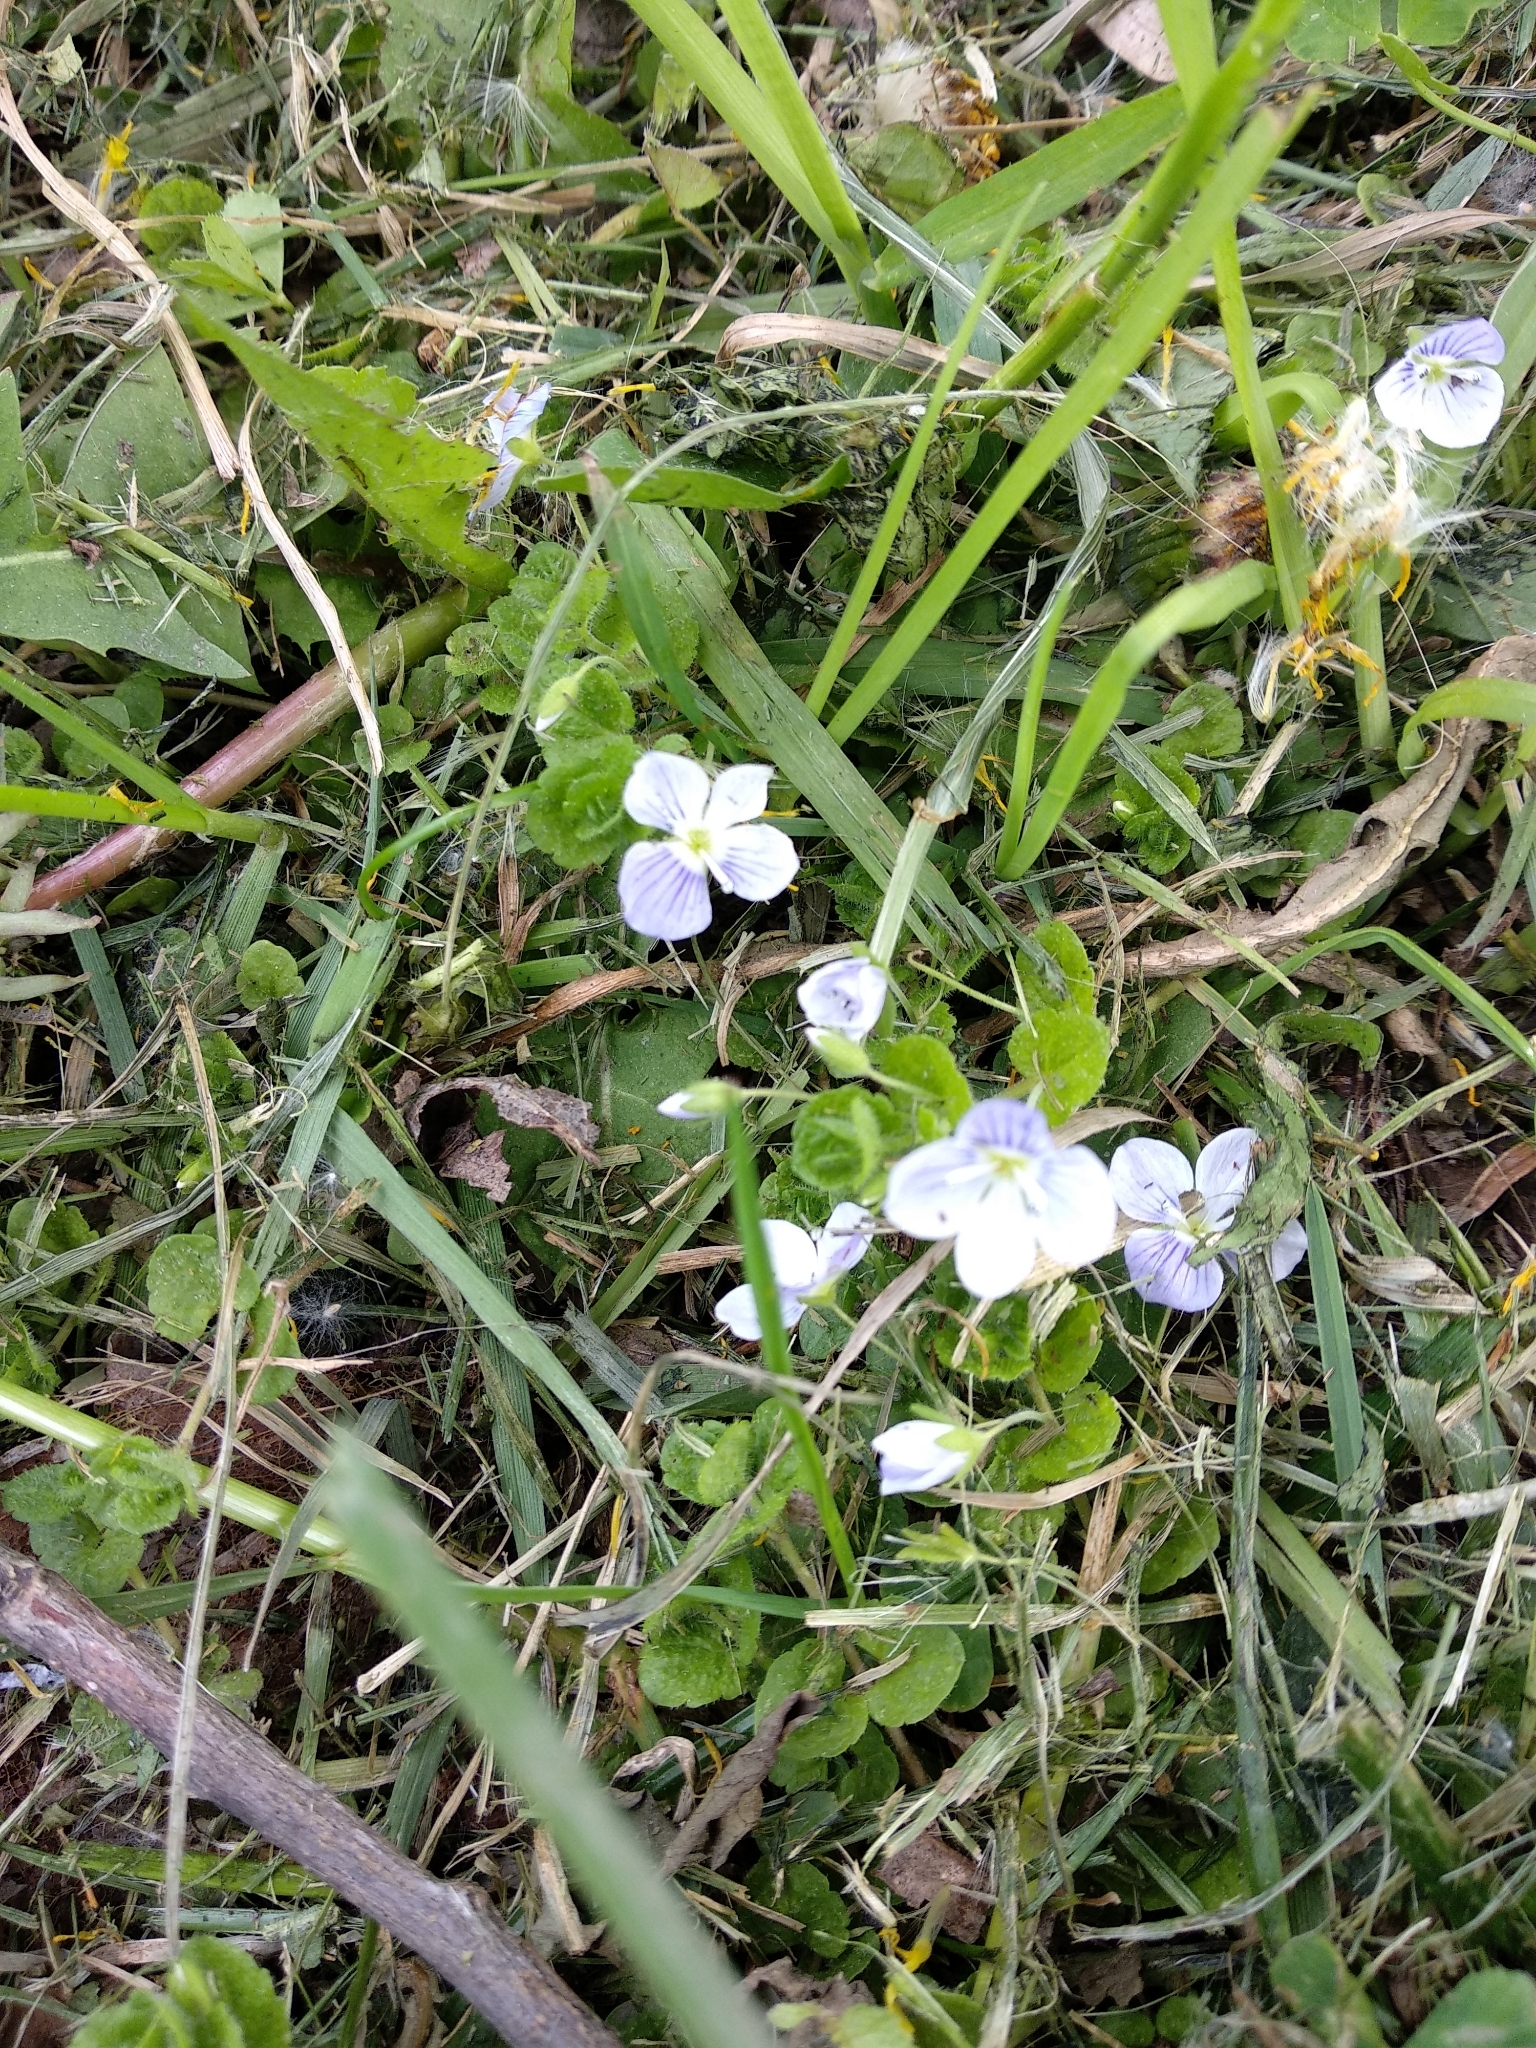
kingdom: Plantae
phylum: Tracheophyta
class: Magnoliopsida
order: Lamiales
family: Plantaginaceae
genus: Veronica
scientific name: Veronica filiformis
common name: Slender speedwell
